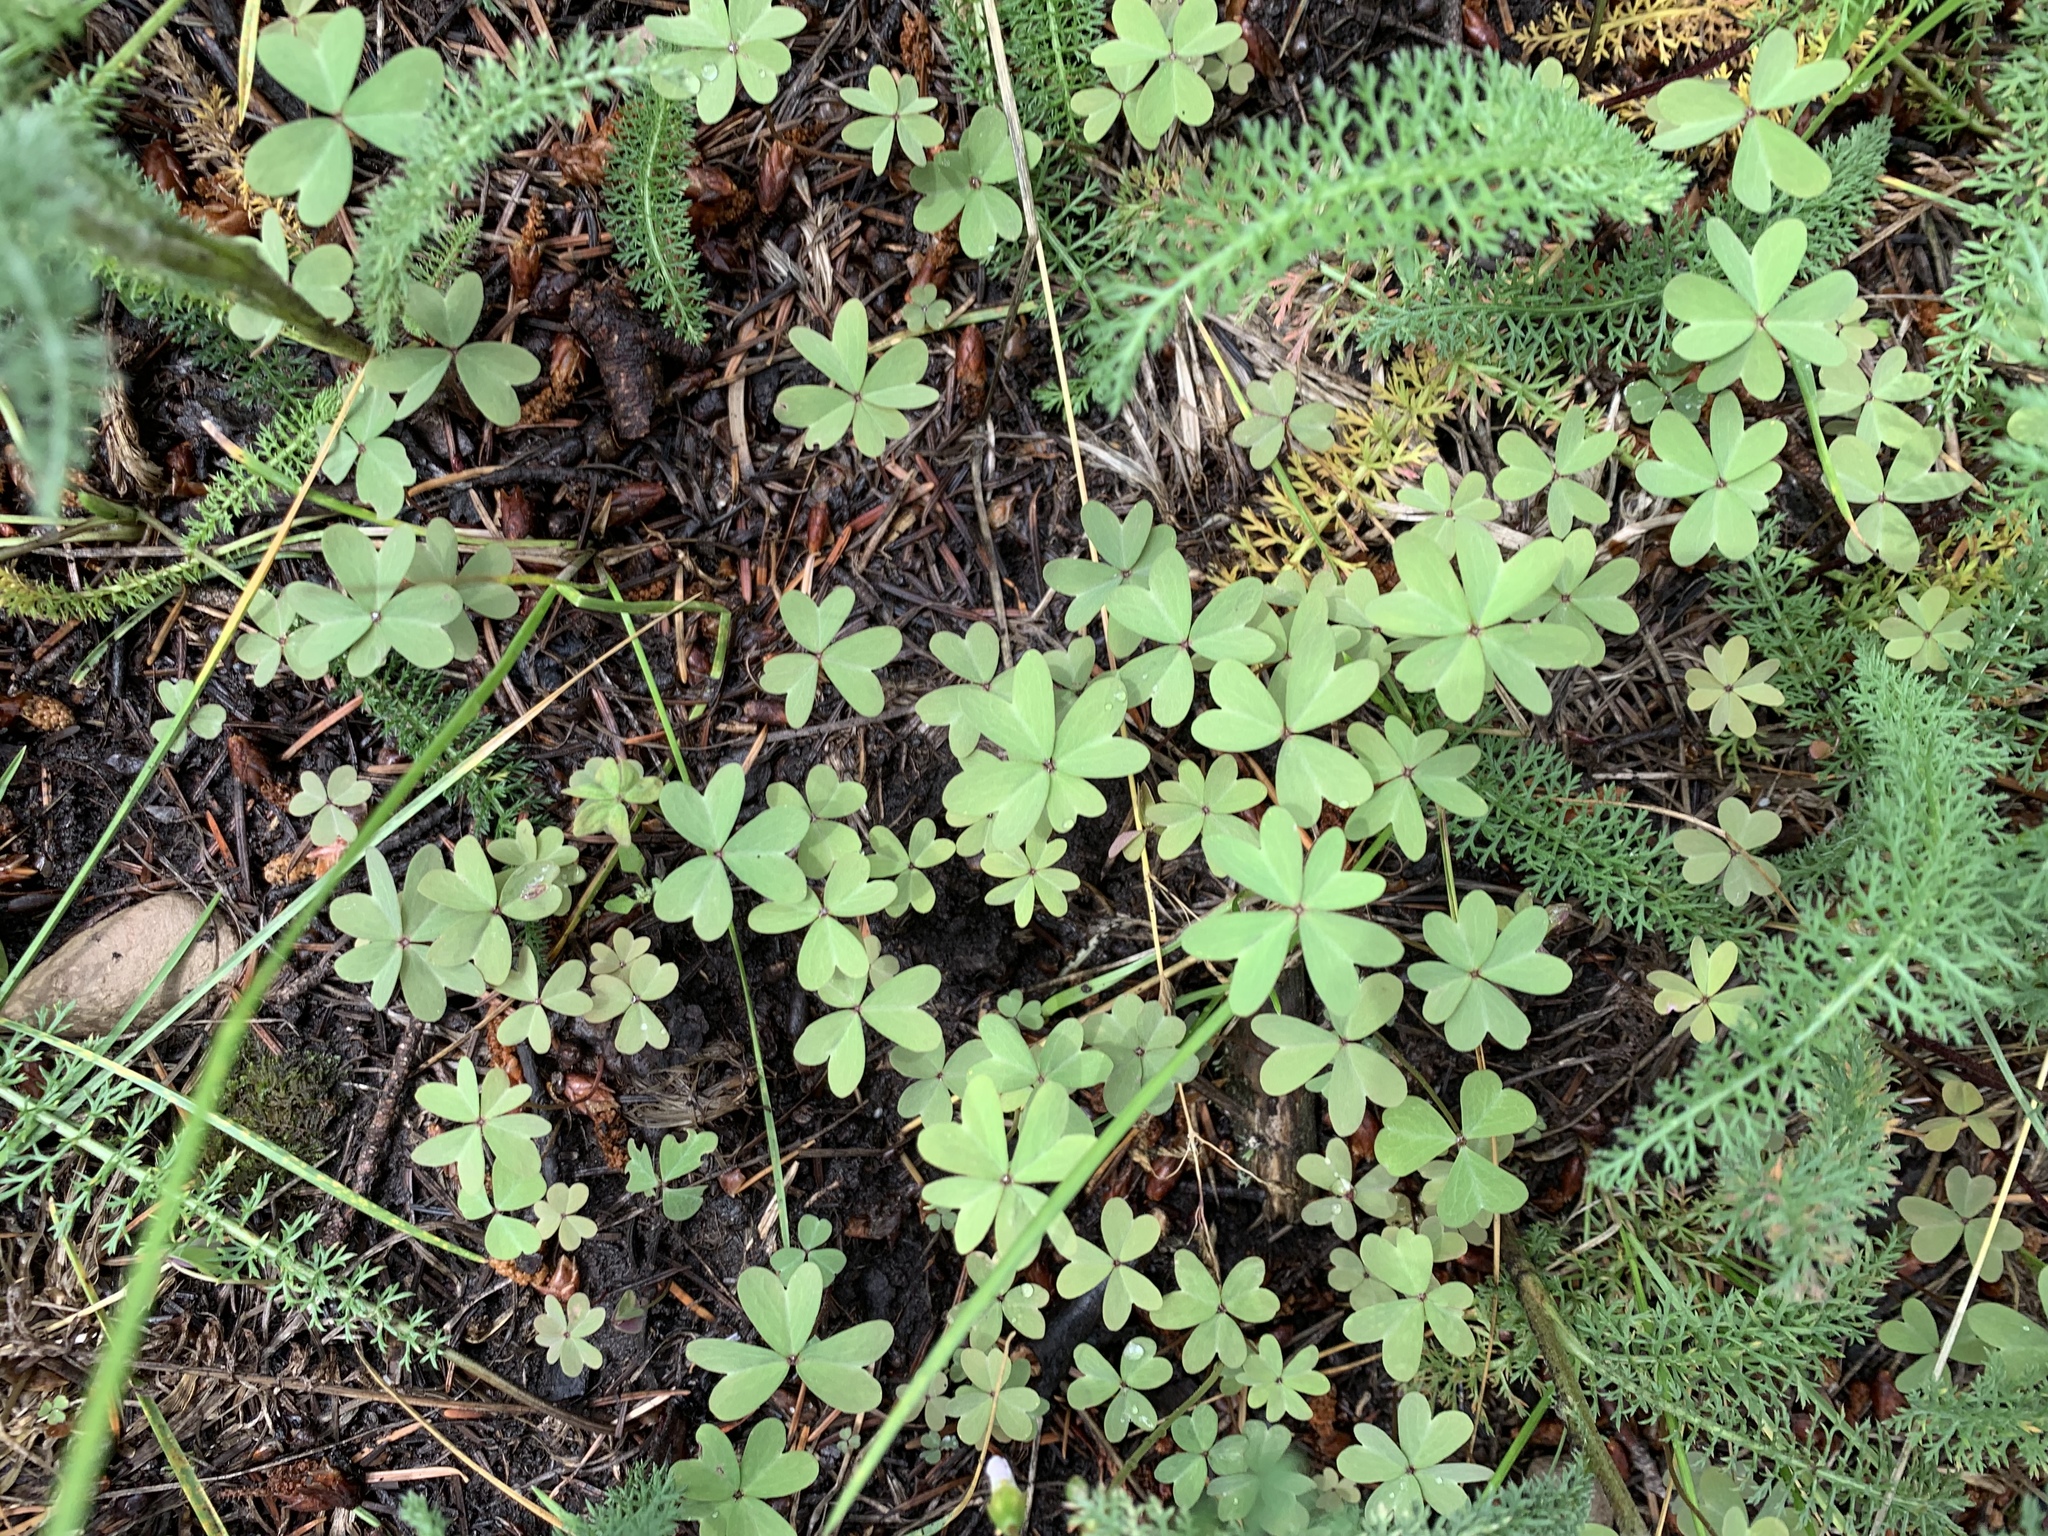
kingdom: Plantae
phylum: Tracheophyta
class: Magnoliopsida
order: Oxalidales
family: Oxalidaceae
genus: Oxalis
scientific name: Oxalis caerulea
